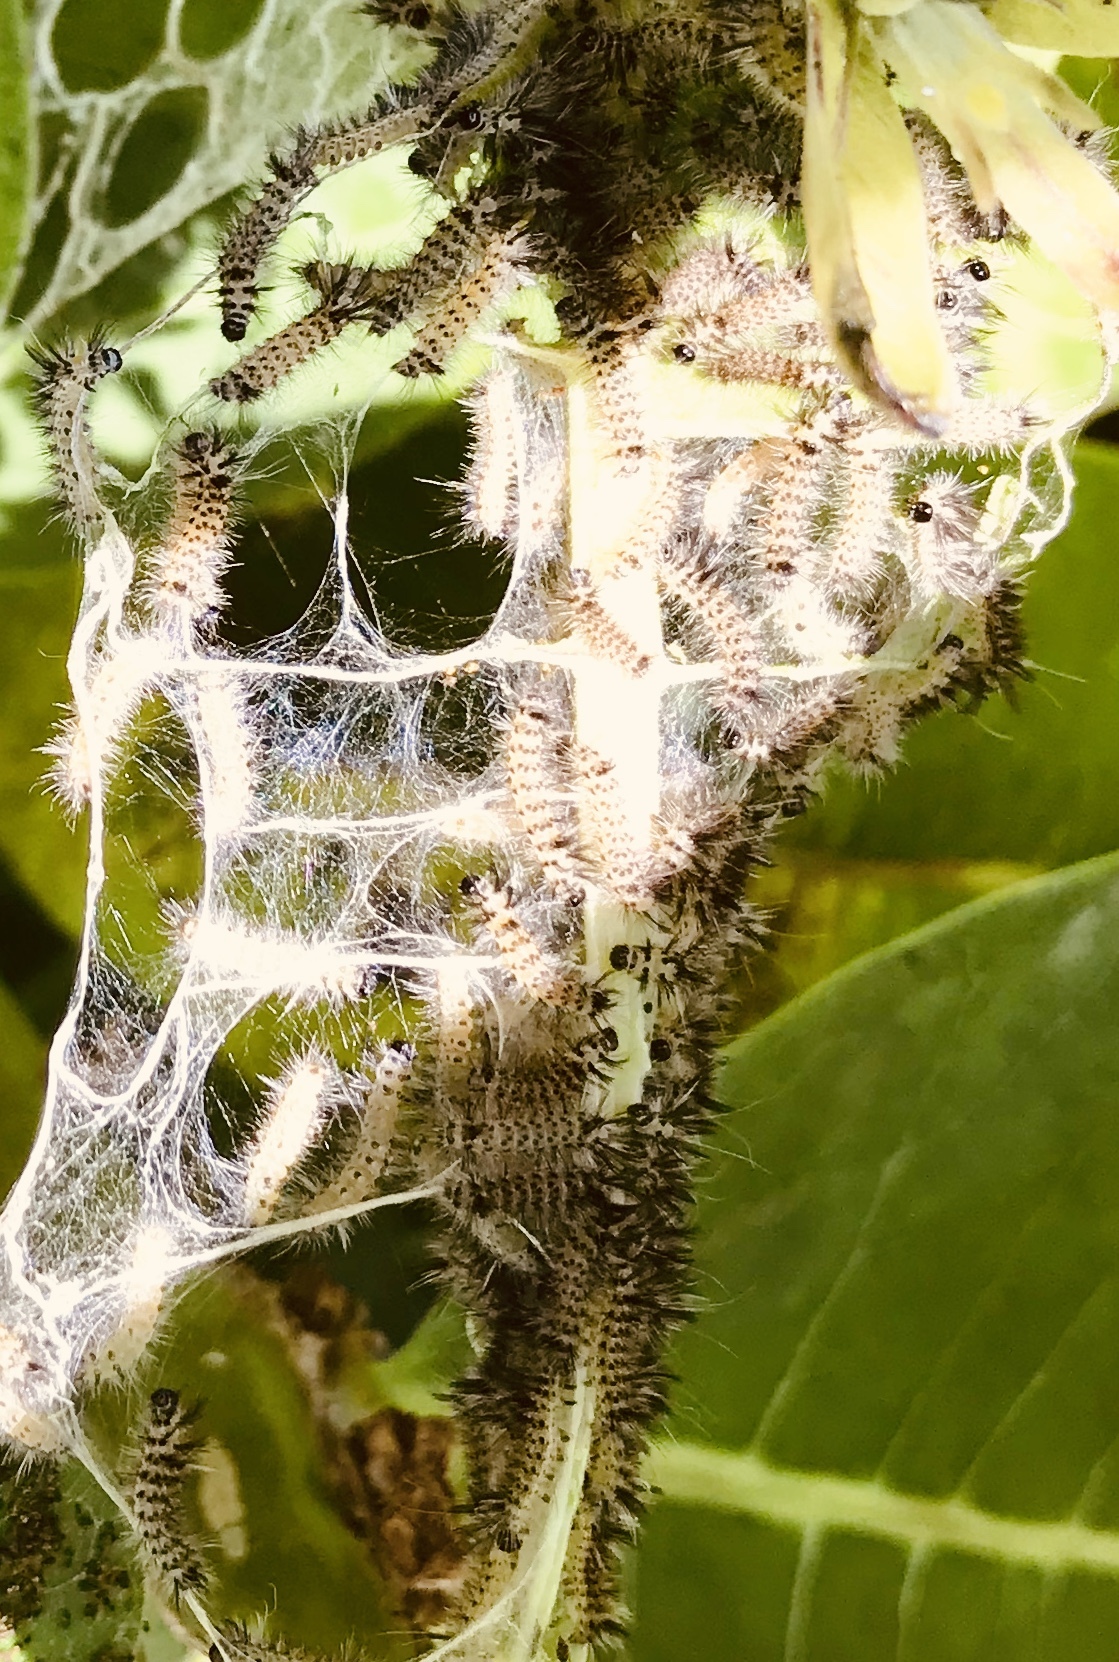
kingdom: Animalia
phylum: Arthropoda
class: Insecta
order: Lepidoptera
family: Erebidae
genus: Euchaetes
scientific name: Euchaetes egle
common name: Milkweed tussock moth
